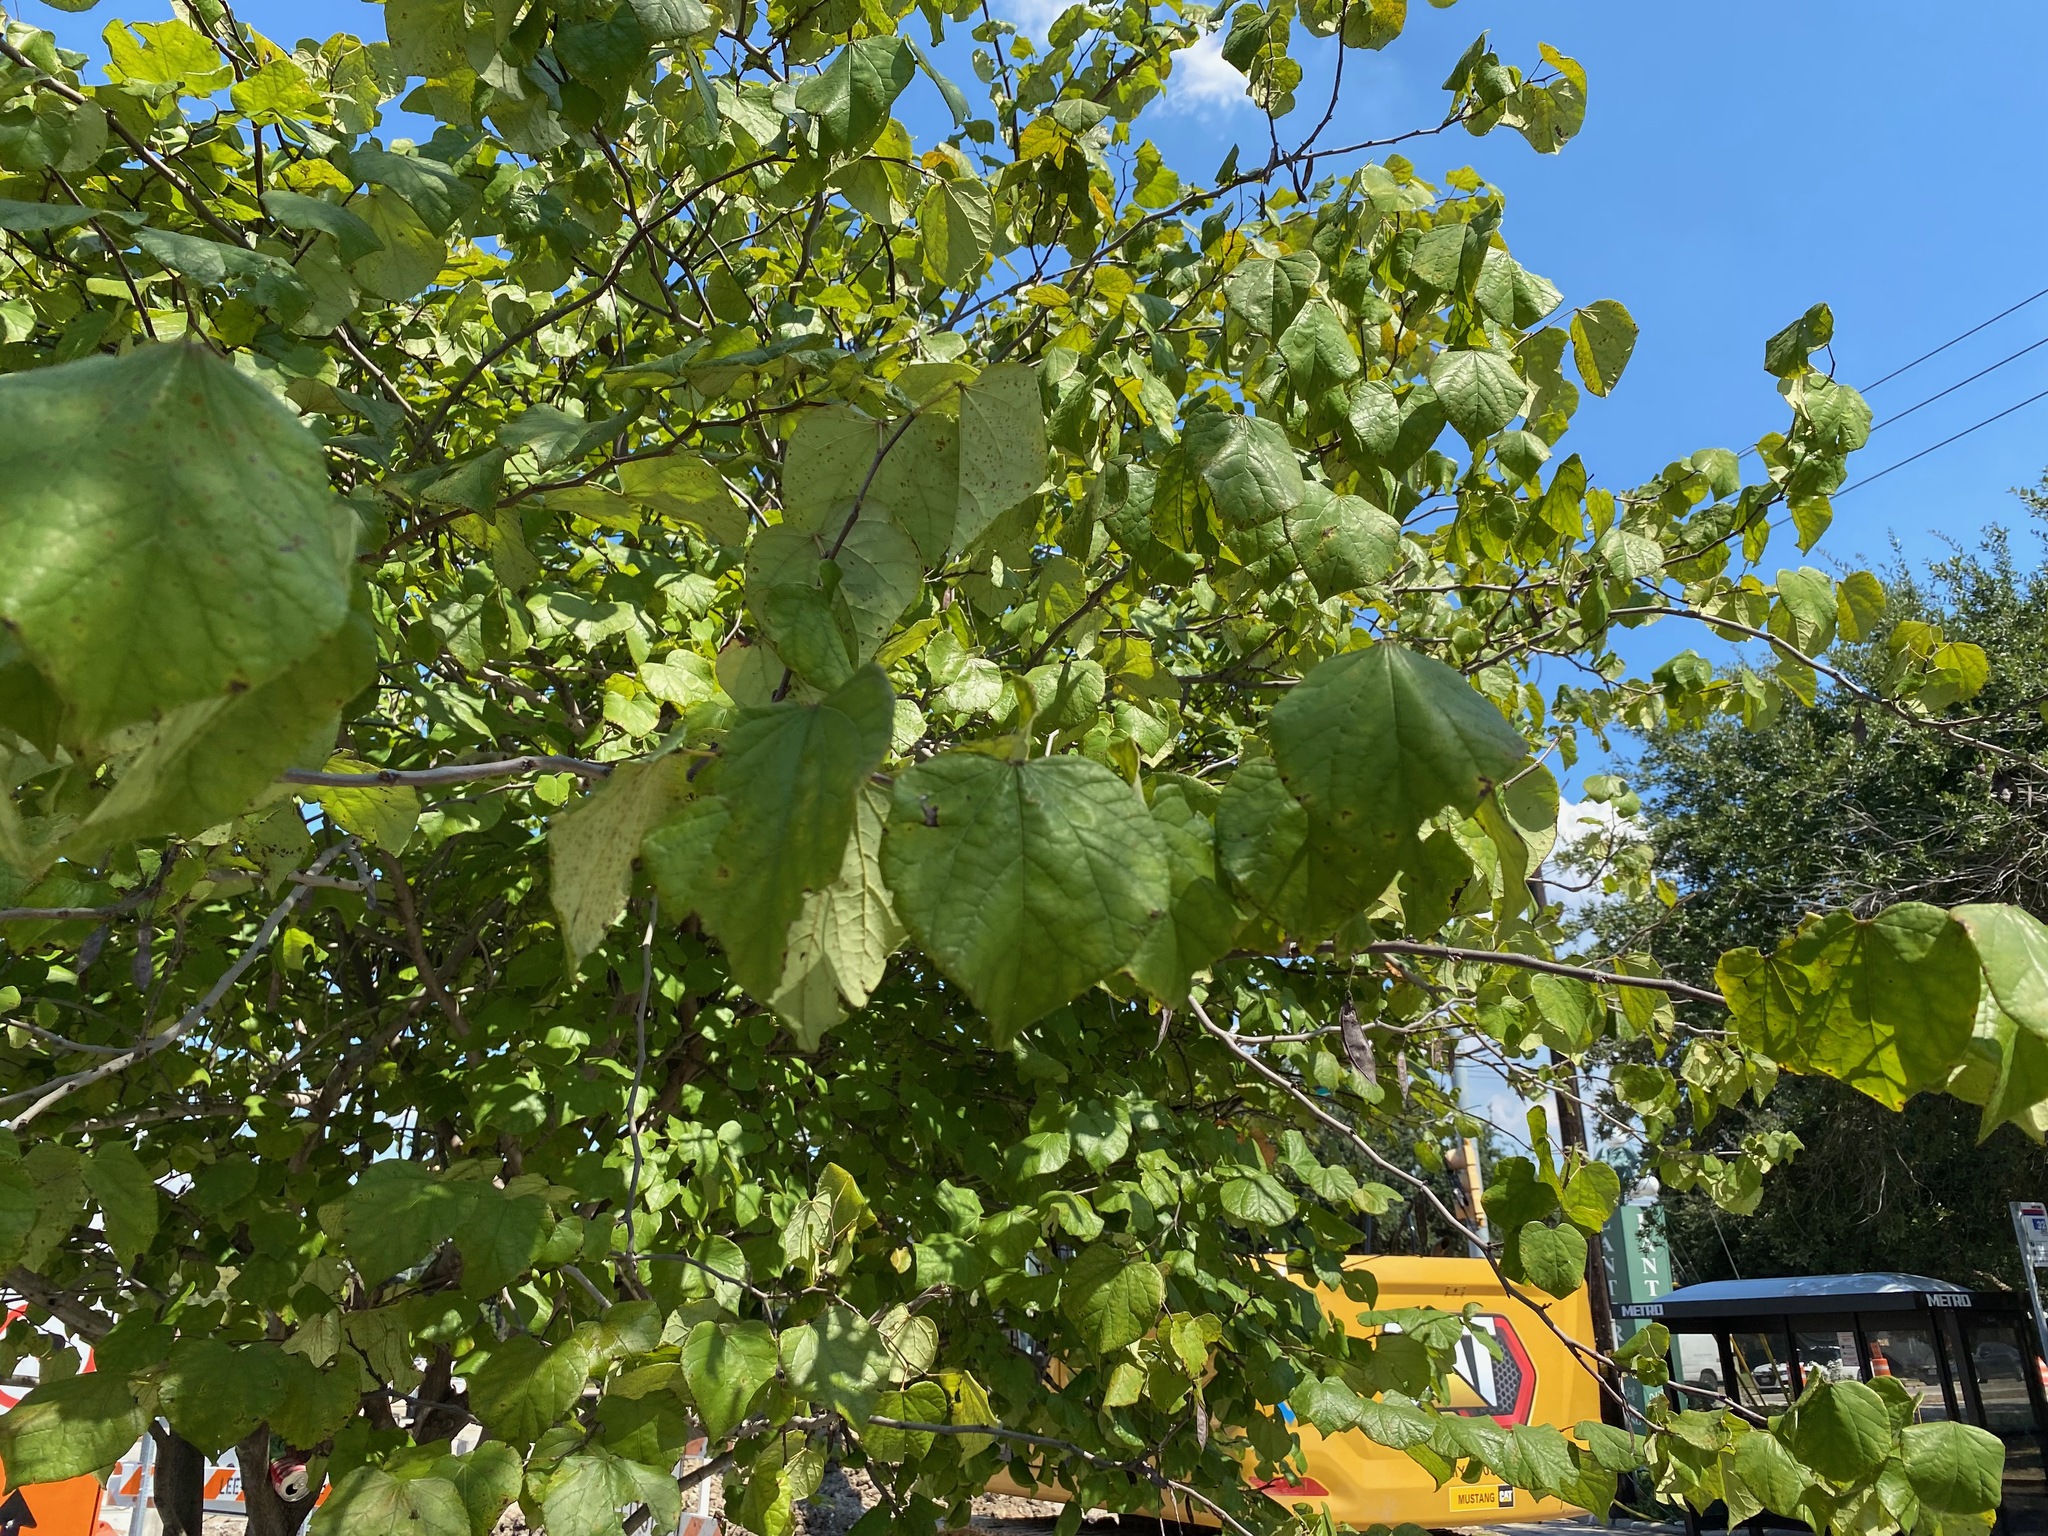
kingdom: Plantae
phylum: Tracheophyta
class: Magnoliopsida
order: Fabales
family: Fabaceae
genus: Cercis
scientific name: Cercis canadensis
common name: Eastern redbud
